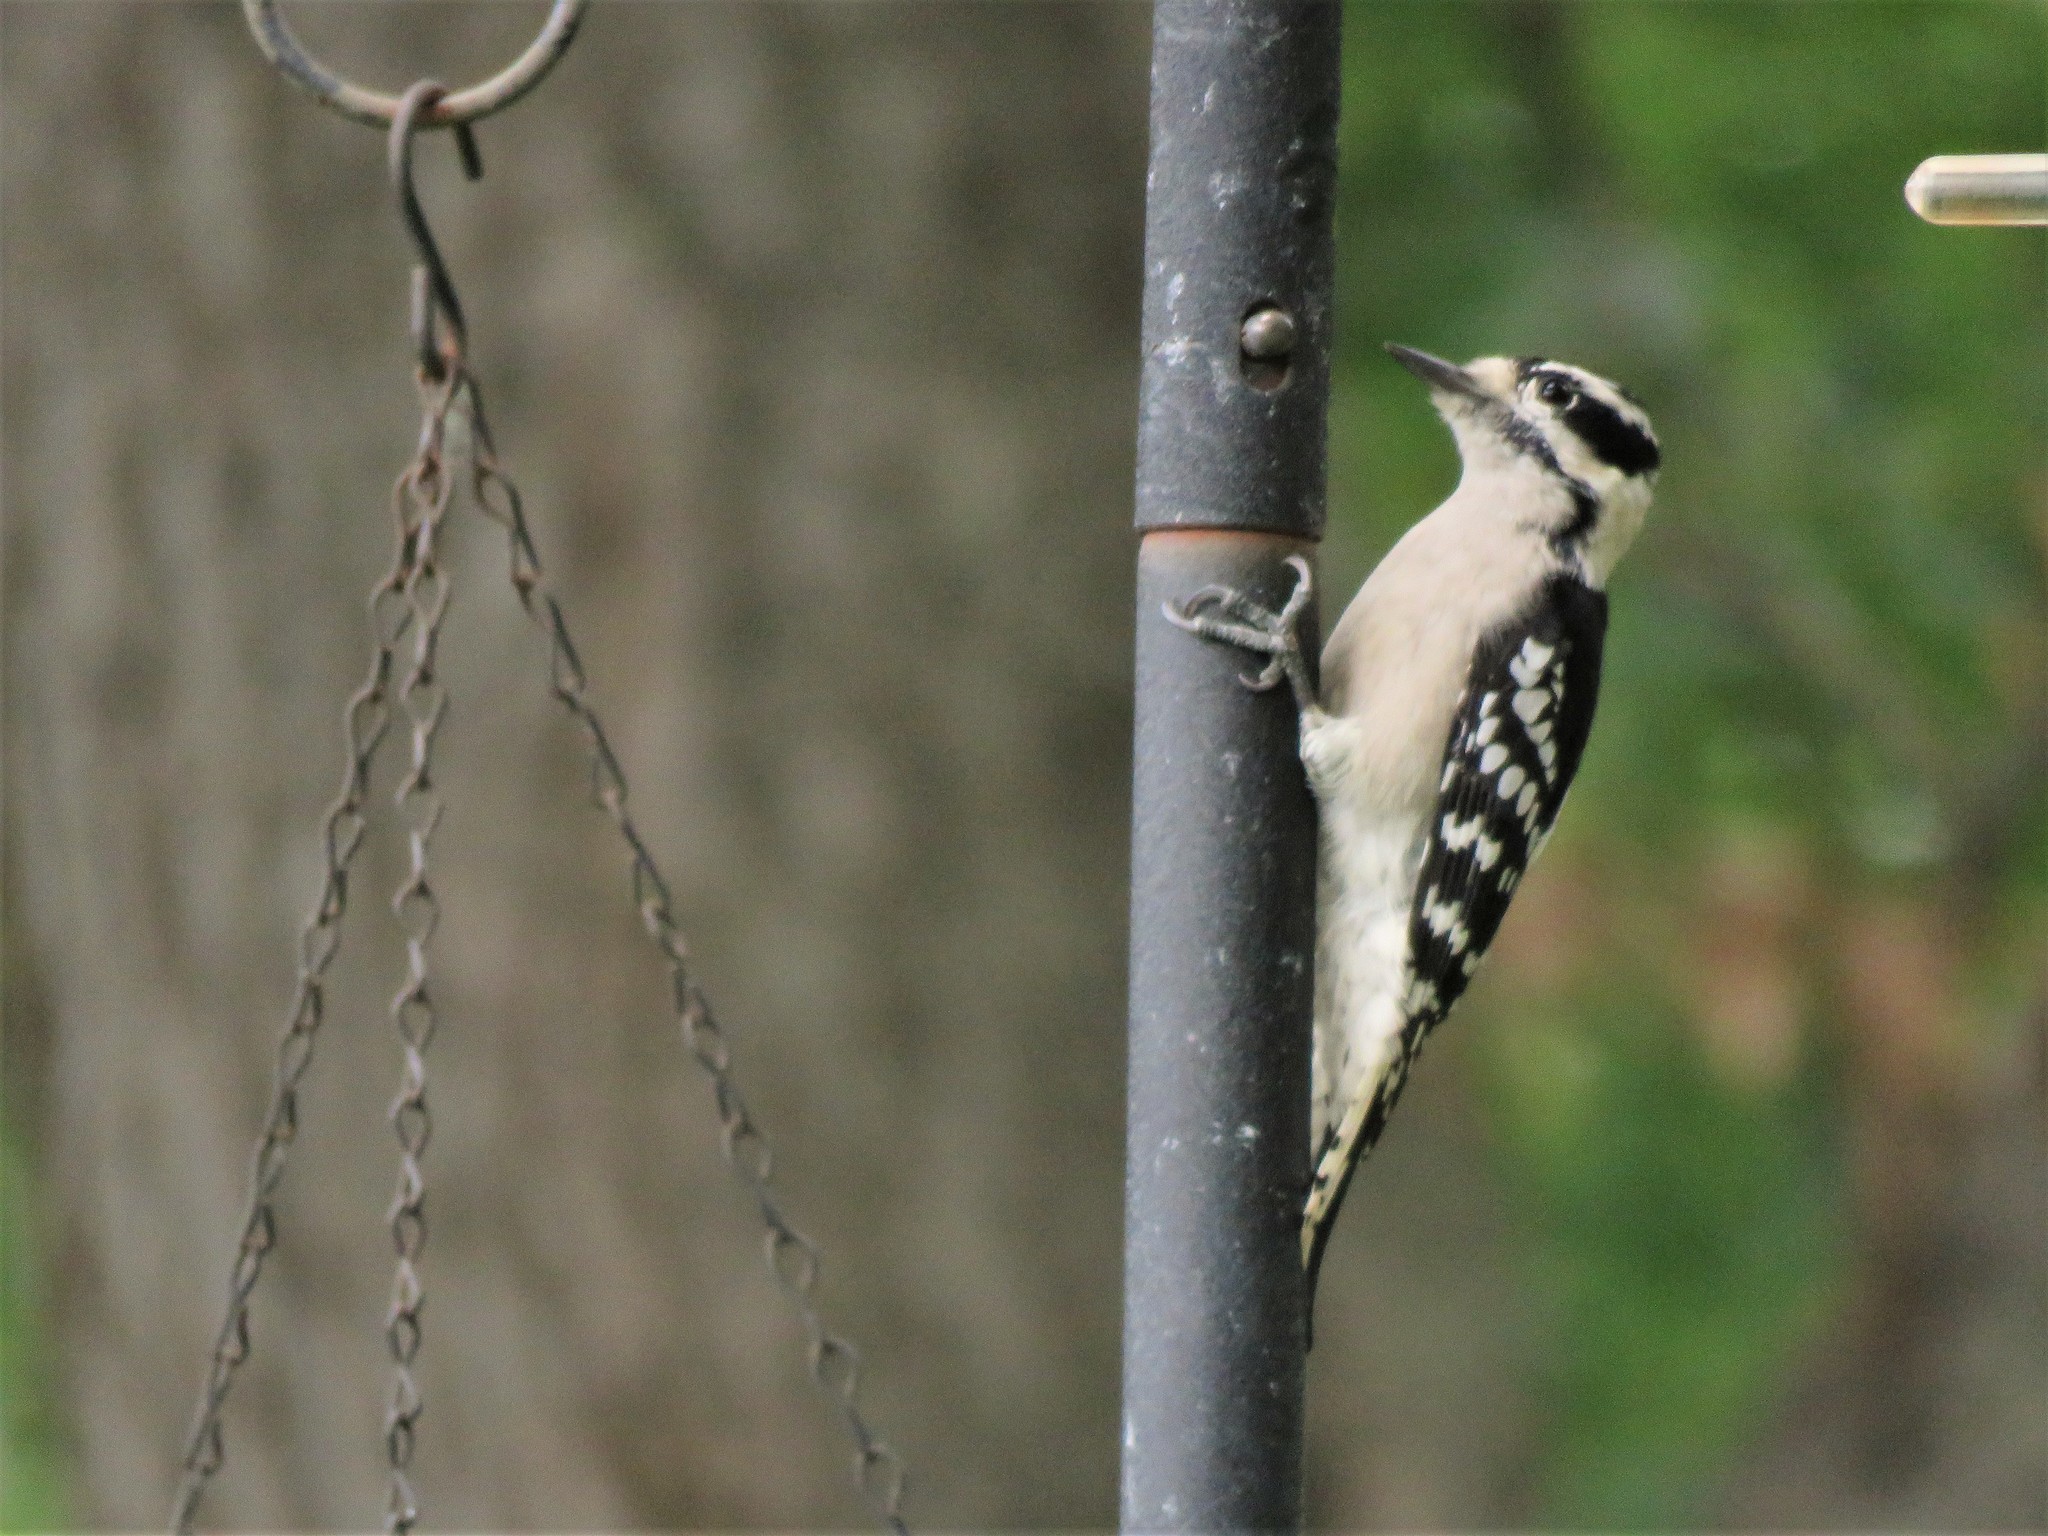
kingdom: Animalia
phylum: Chordata
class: Aves
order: Piciformes
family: Picidae
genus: Dryobates
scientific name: Dryobates pubescens
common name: Downy woodpecker
